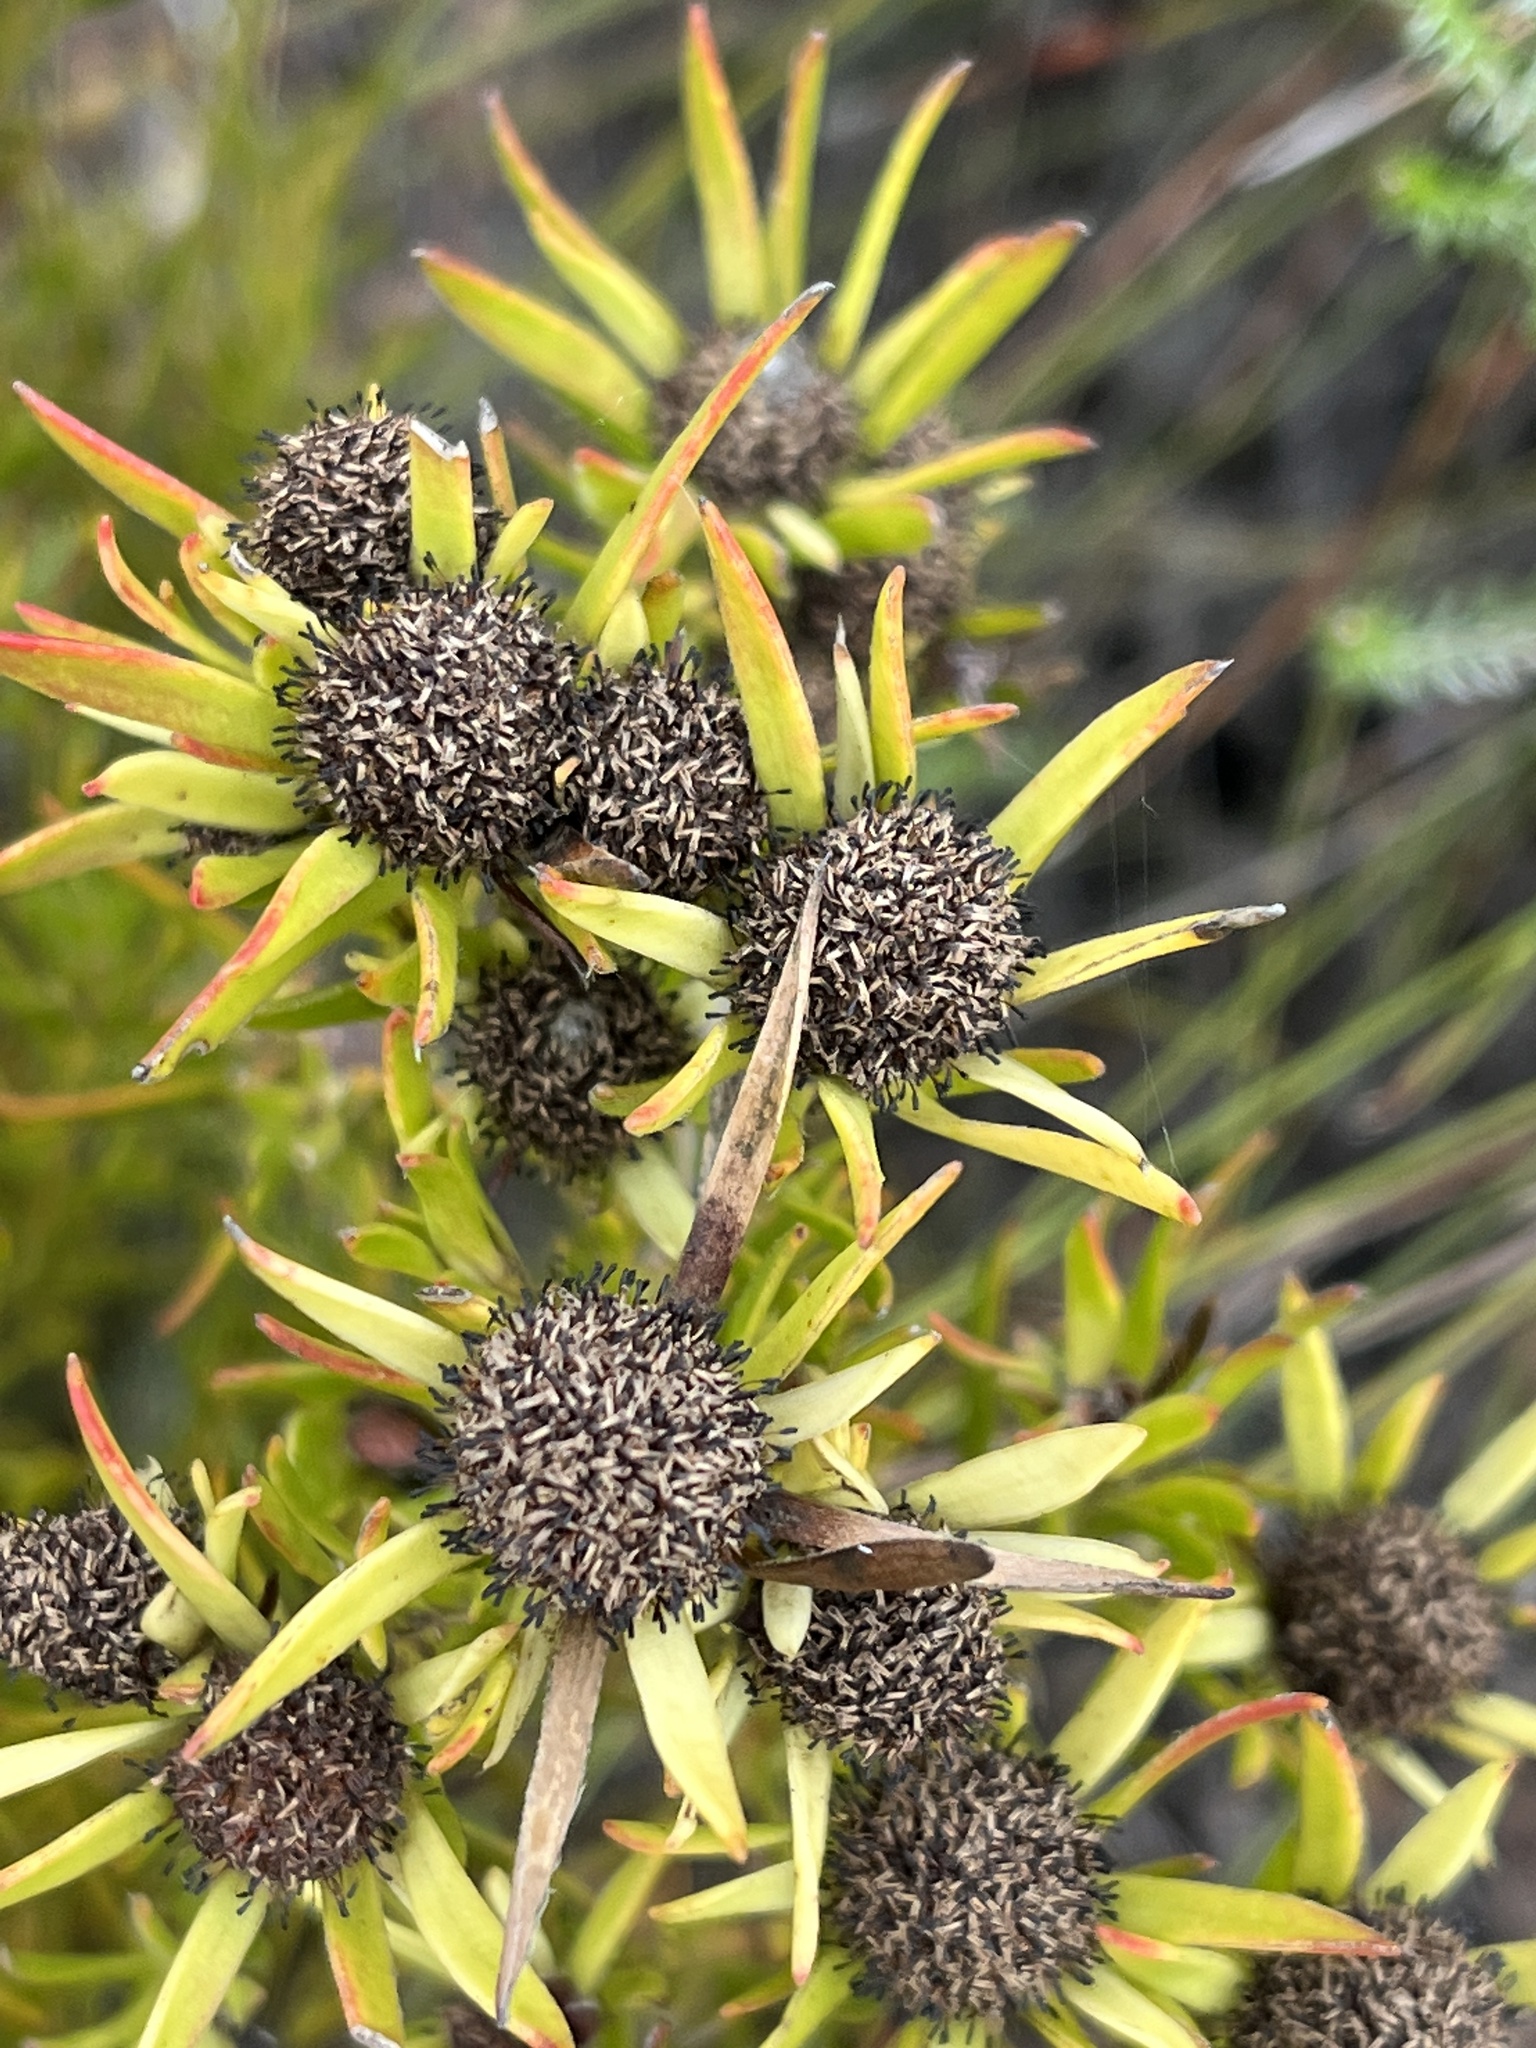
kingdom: Plantae
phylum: Tracheophyta
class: Magnoliopsida
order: Proteales
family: Proteaceae
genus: Leucadendron
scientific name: Leucadendron spissifolium
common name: Spear-leaf conebush
